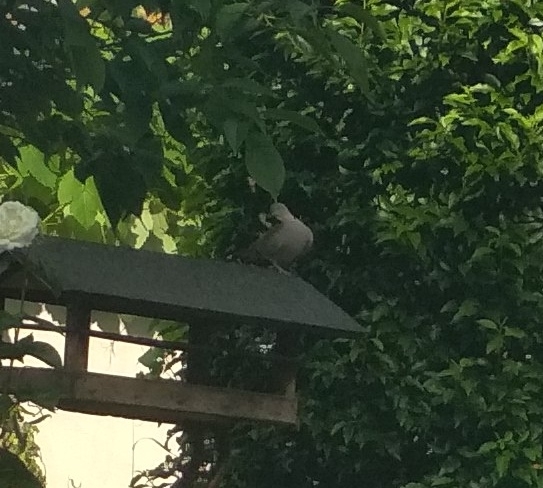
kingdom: Animalia
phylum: Chordata
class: Aves
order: Columbiformes
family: Columbidae
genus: Streptopelia
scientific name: Streptopelia decaocto
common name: Eurasian collared dove
